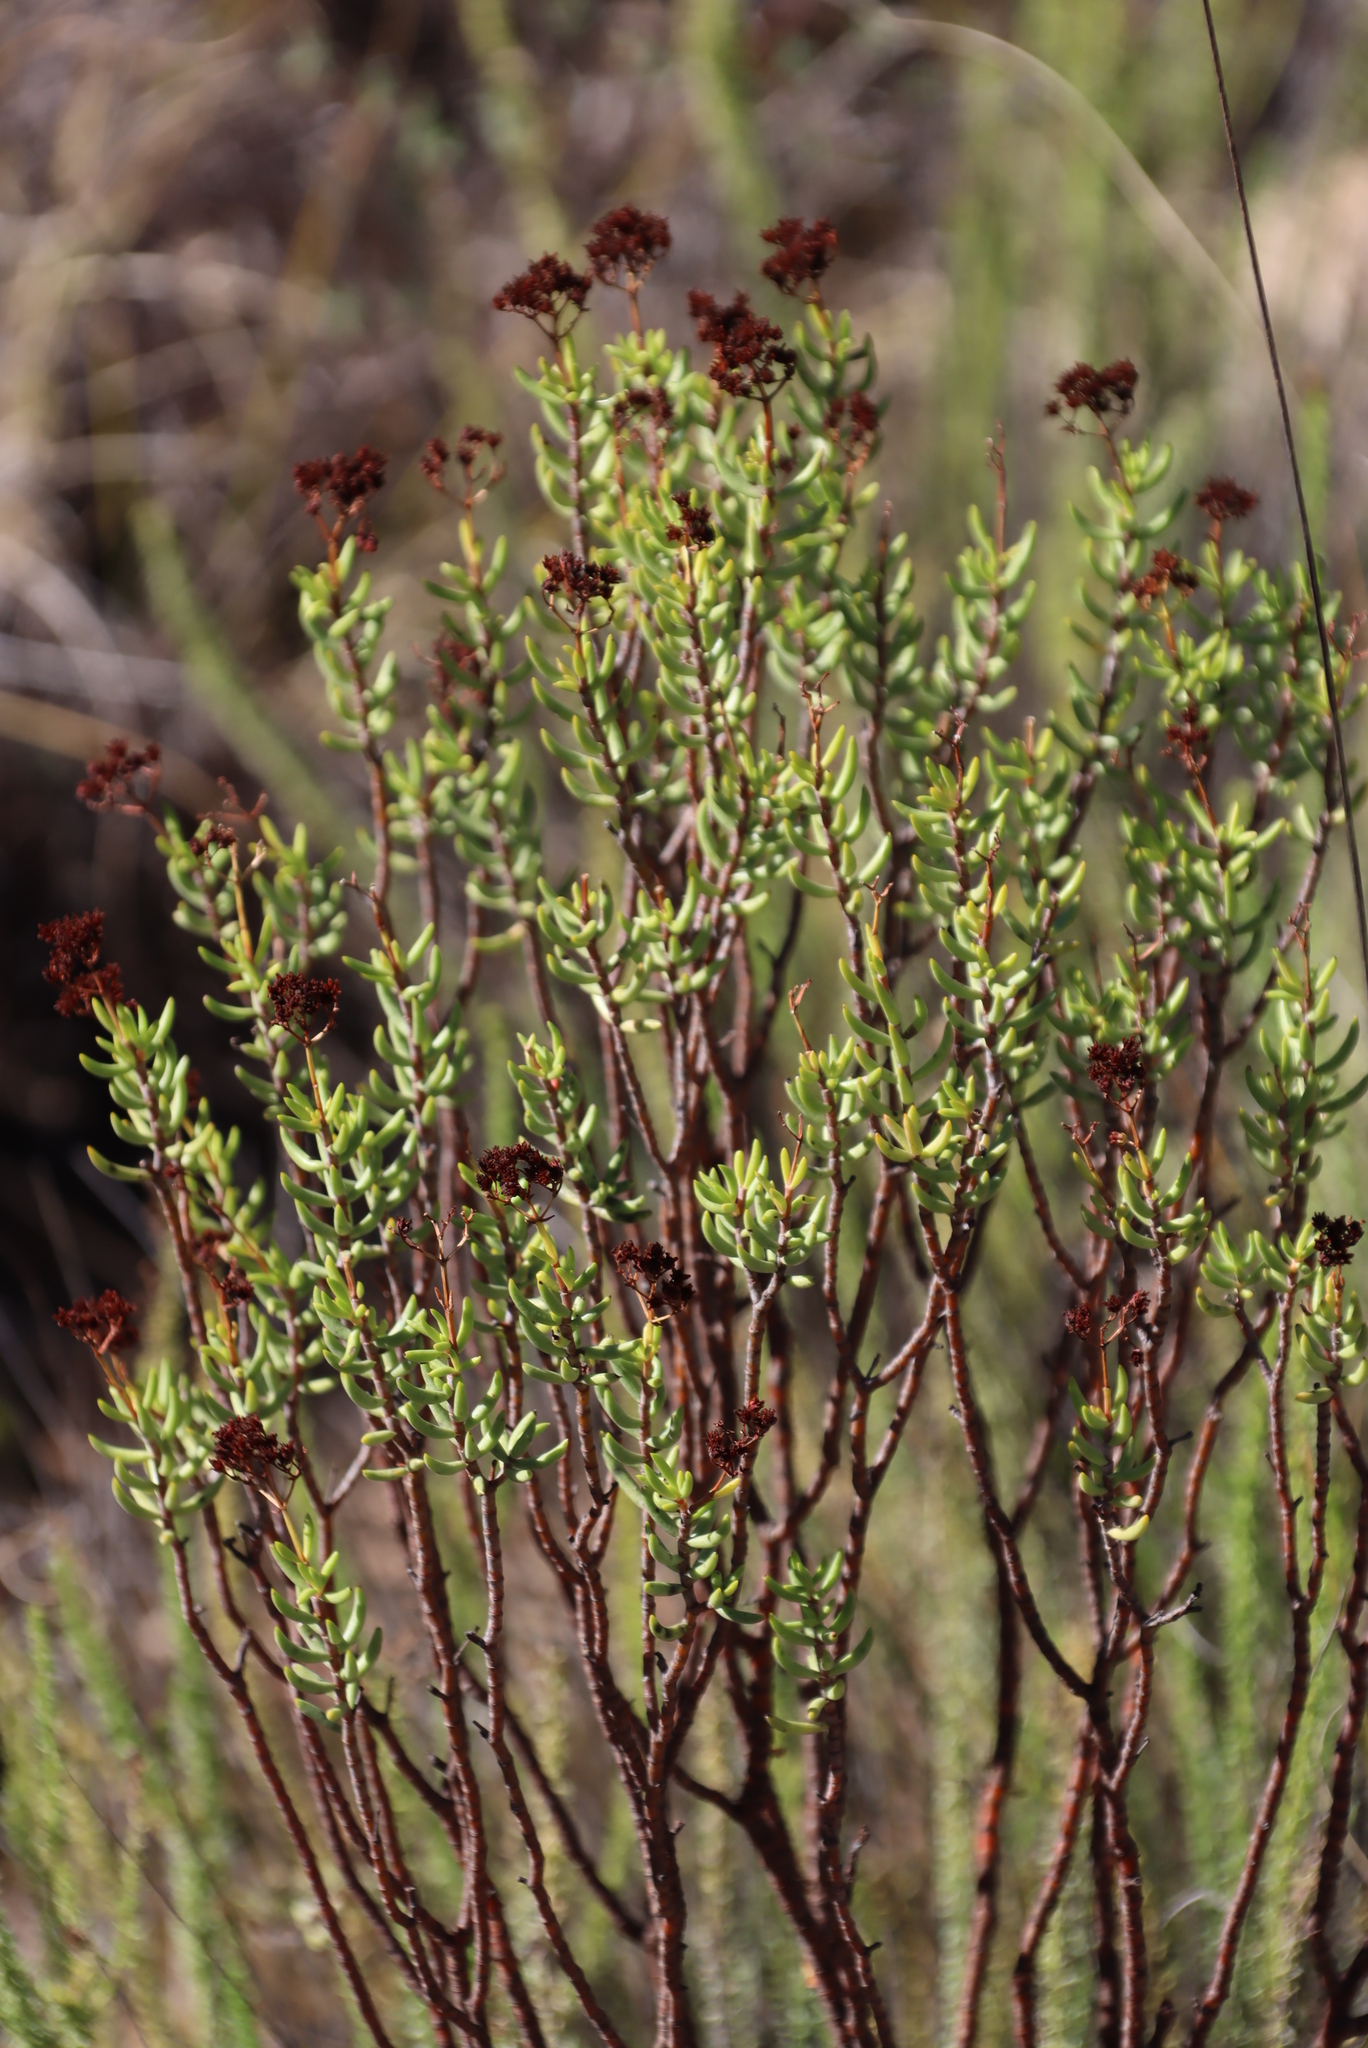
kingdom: Plantae
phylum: Tracheophyta
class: Magnoliopsida
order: Saxifragales
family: Crassulaceae
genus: Crassula
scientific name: Crassula tetragona
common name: Pygmyweed
